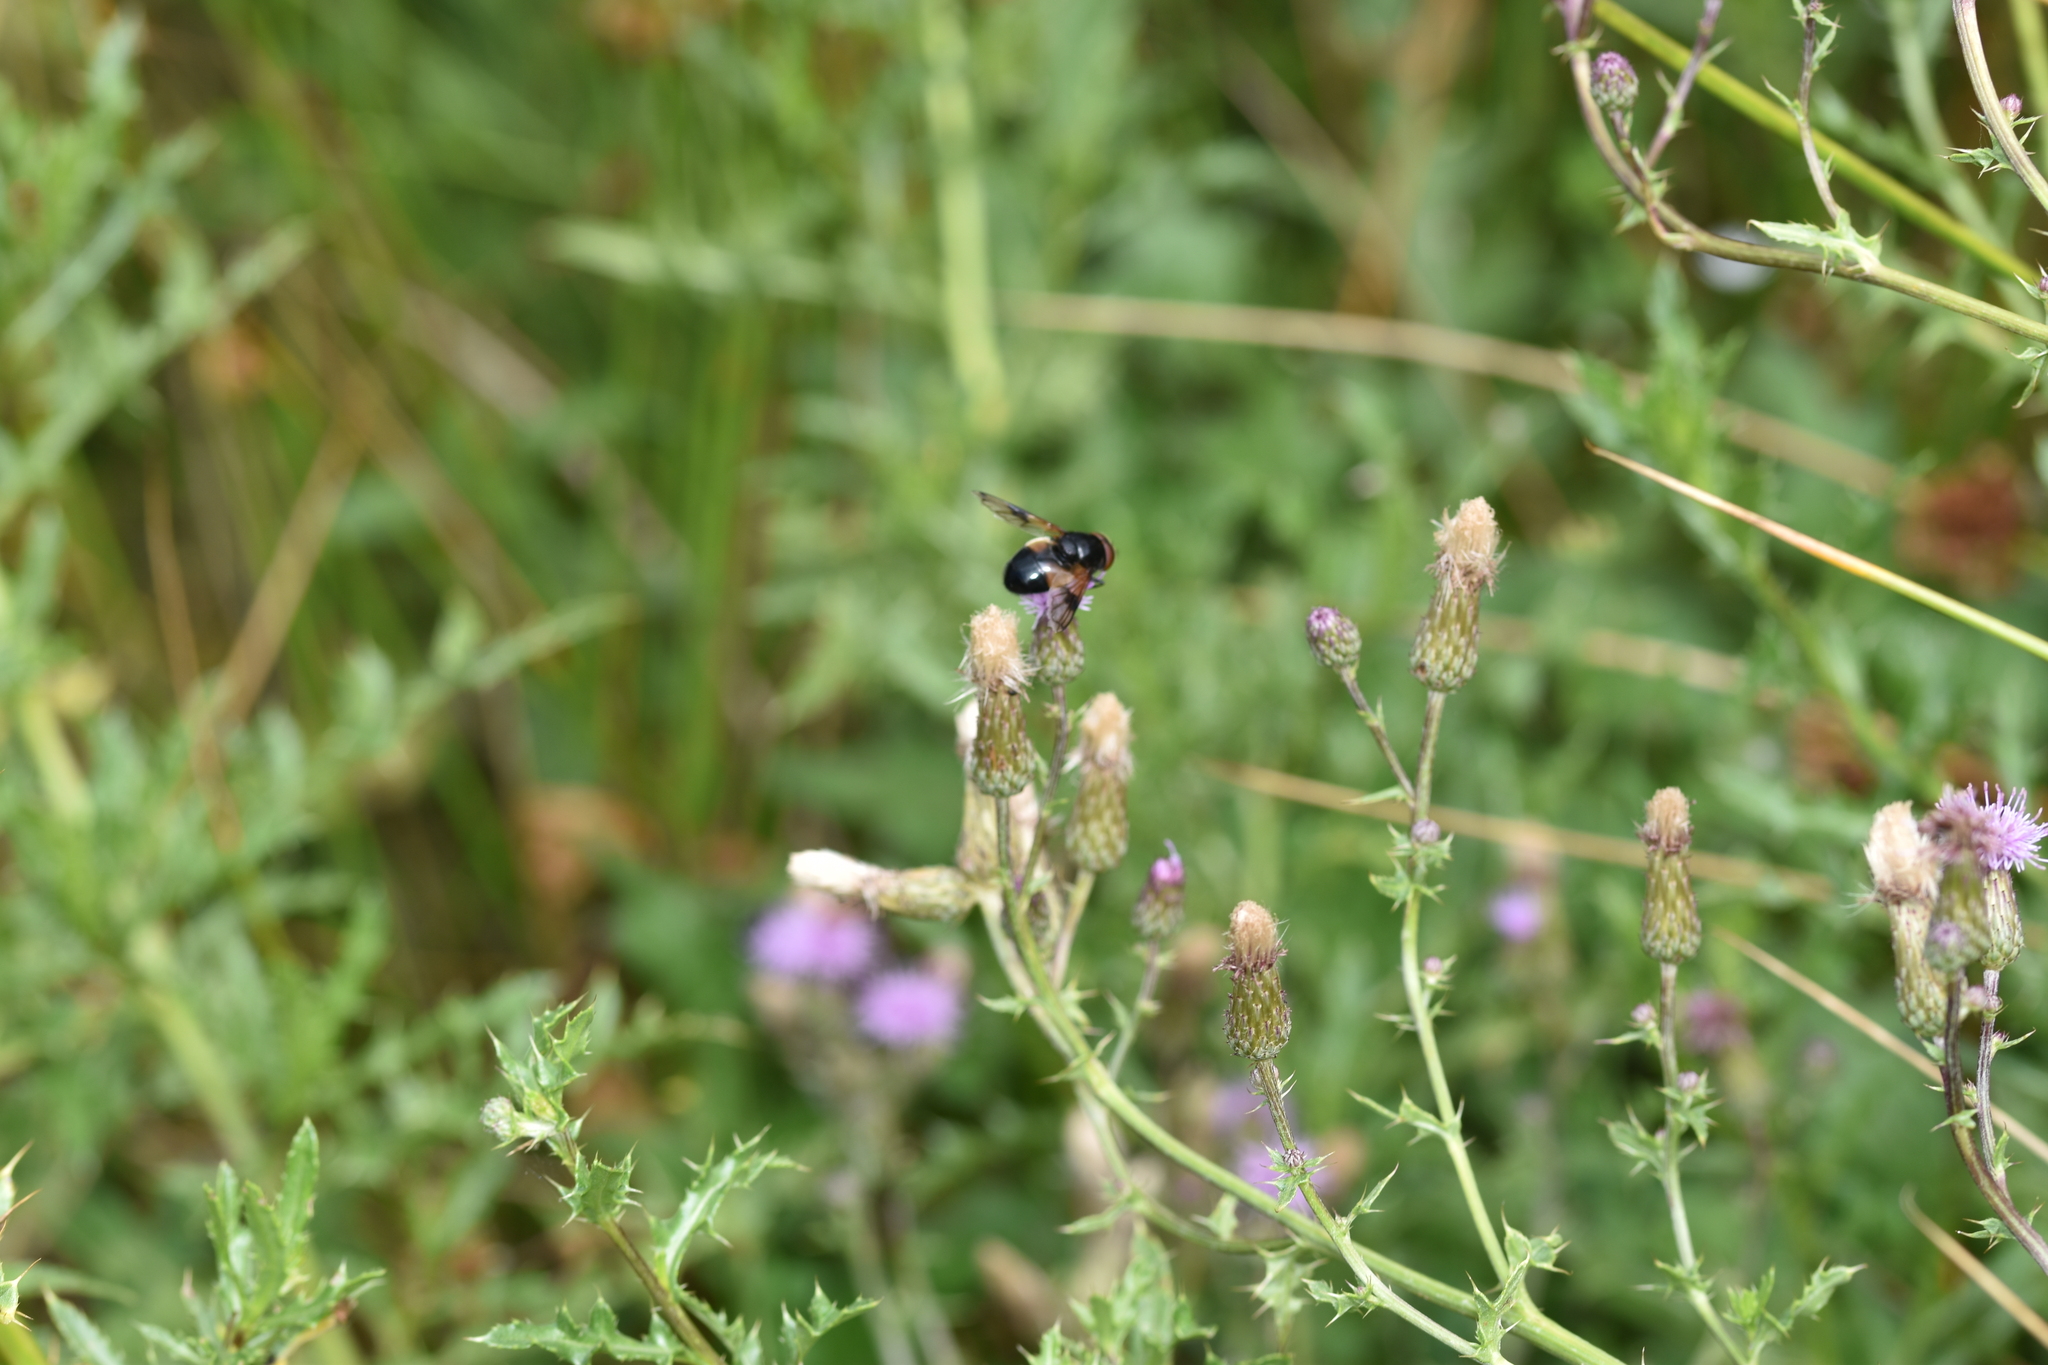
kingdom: Animalia
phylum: Arthropoda
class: Insecta
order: Diptera
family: Syrphidae
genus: Volucella
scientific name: Volucella pellucens
